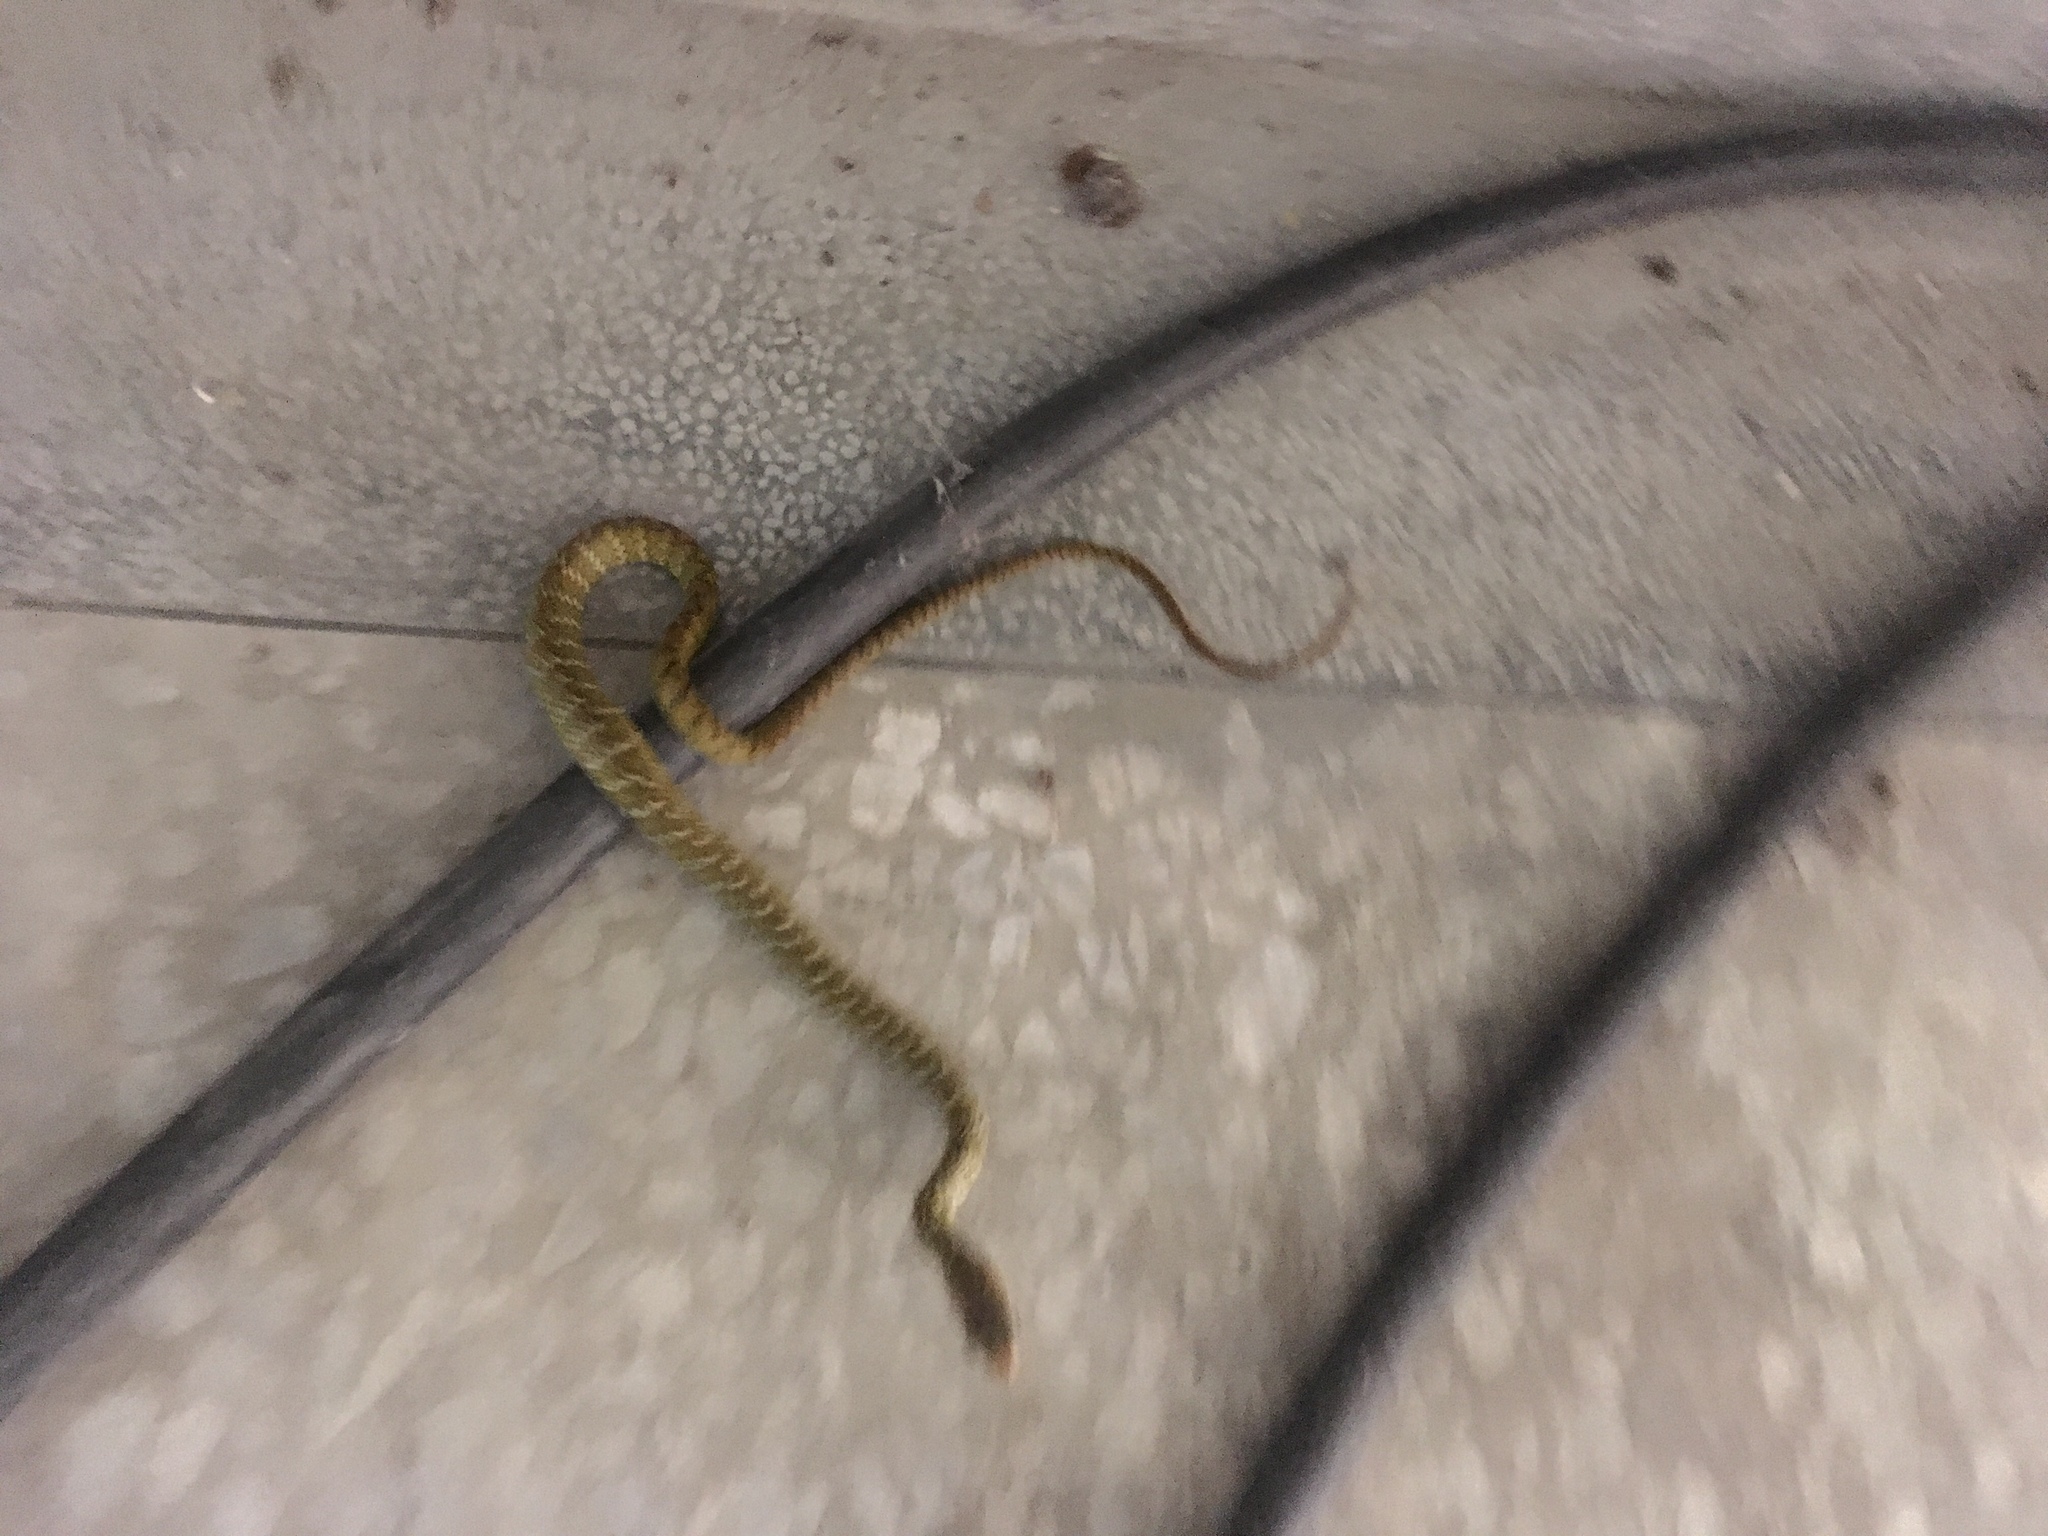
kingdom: Animalia
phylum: Chordata
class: Squamata
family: Colubridae
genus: Ptyas
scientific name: Ptyas mucosa
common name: Oriental ratsnake
